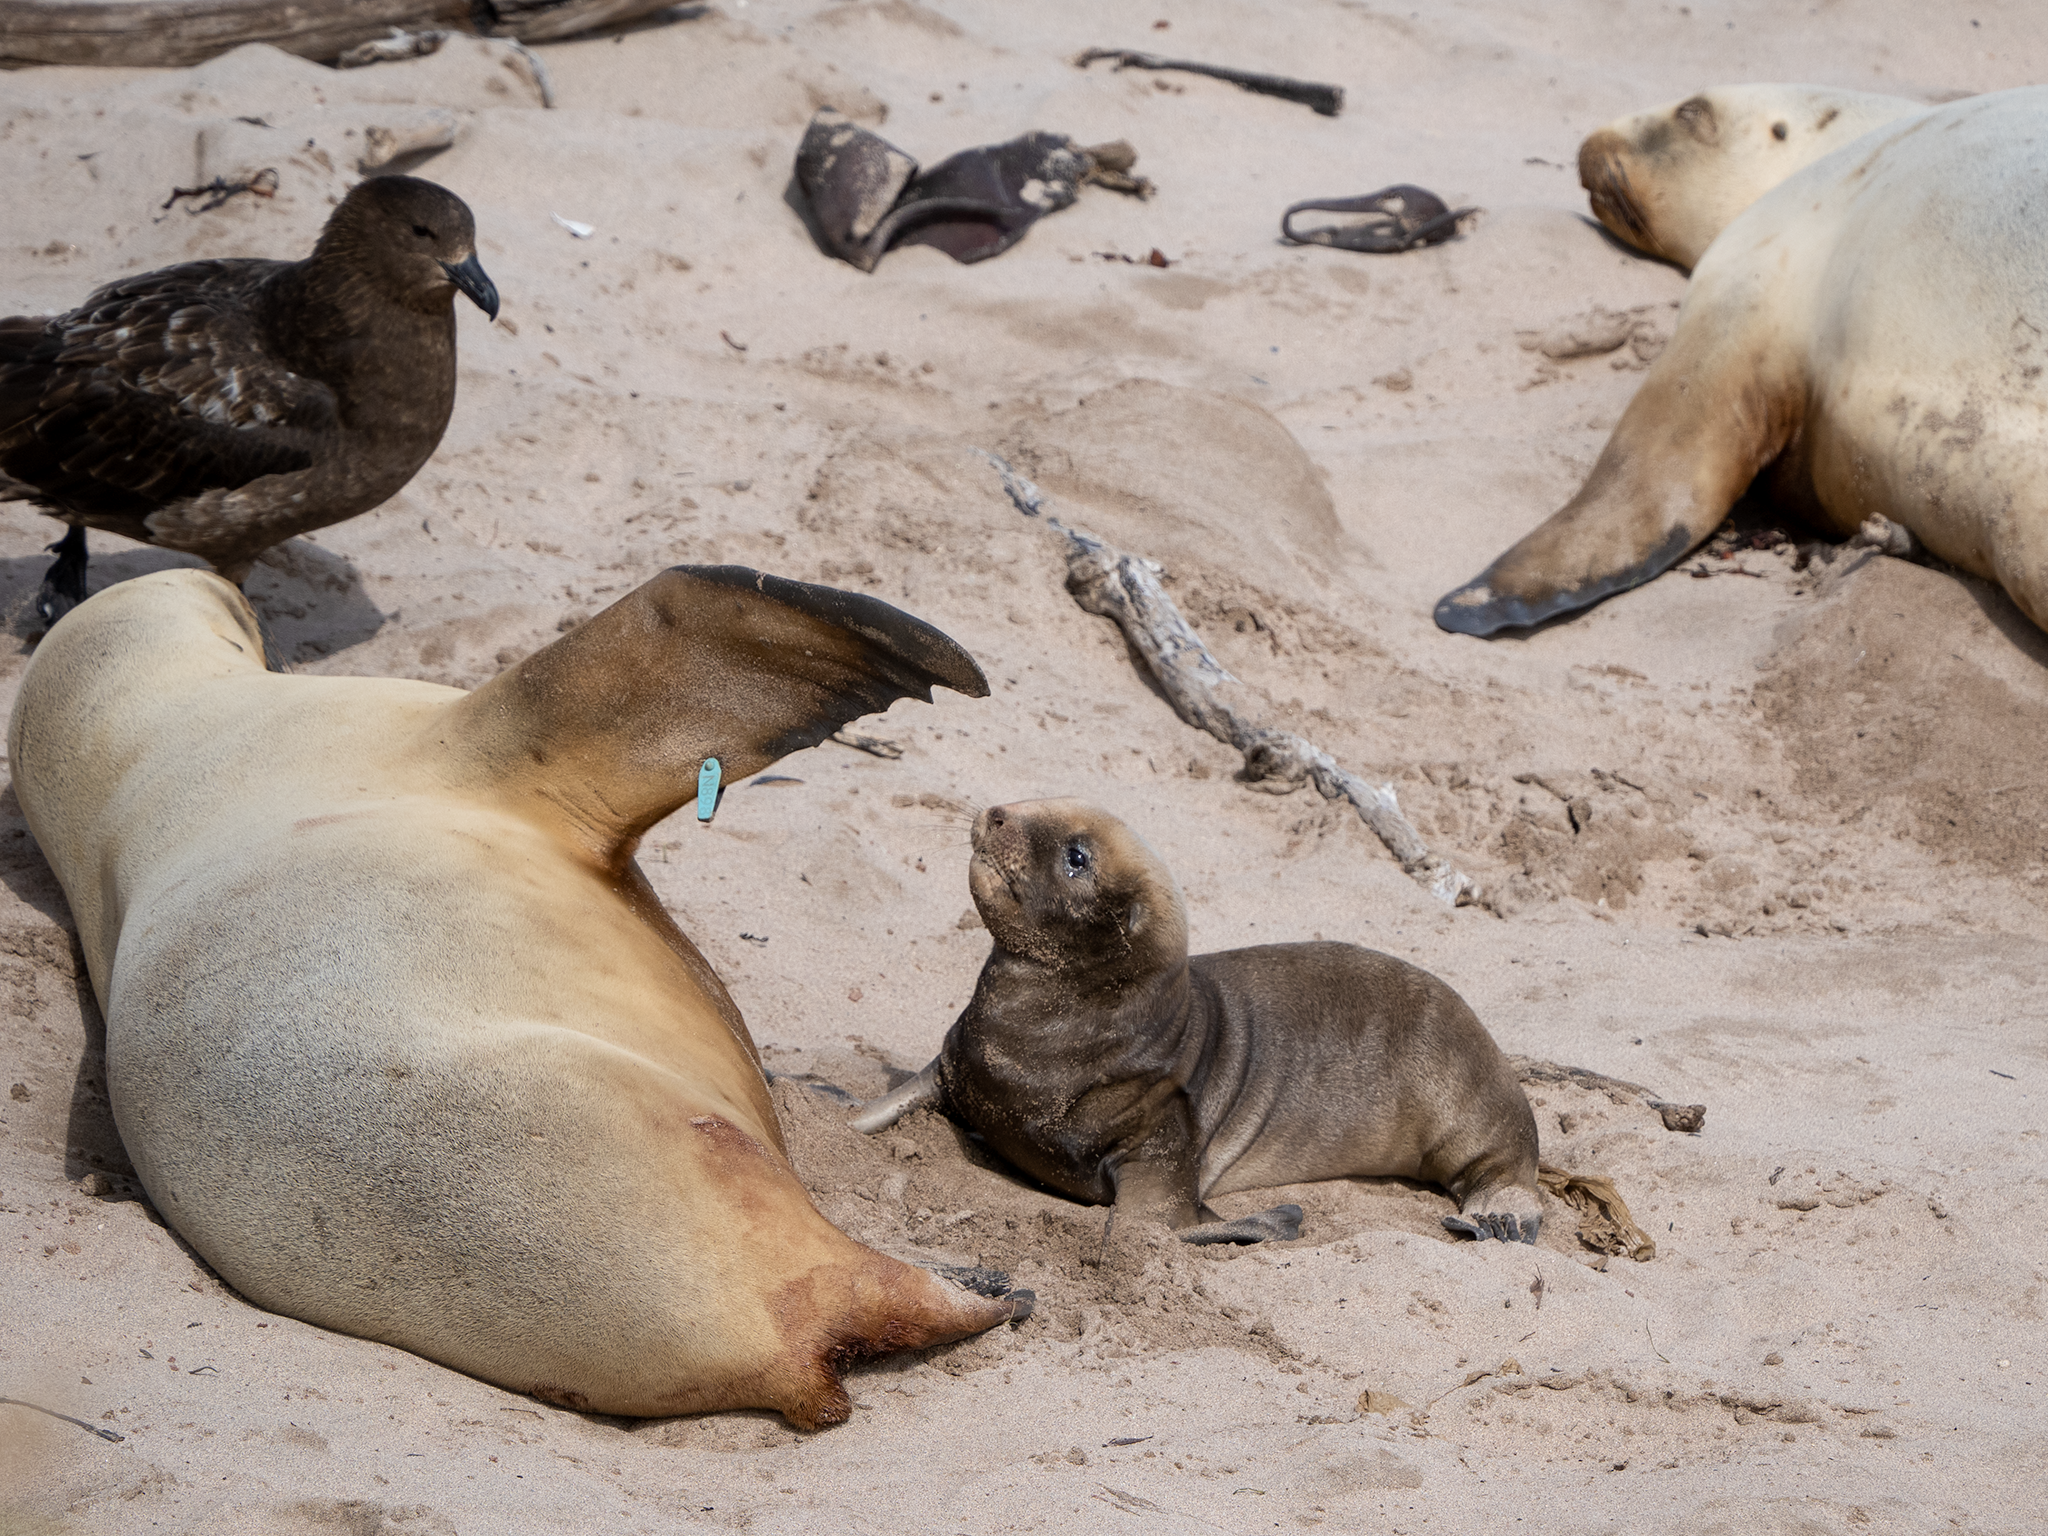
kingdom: Animalia
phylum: Chordata
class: Mammalia
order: Carnivora
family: Otariidae
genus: Phocarctos
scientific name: Phocarctos hookeri
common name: New zealand sea lion
